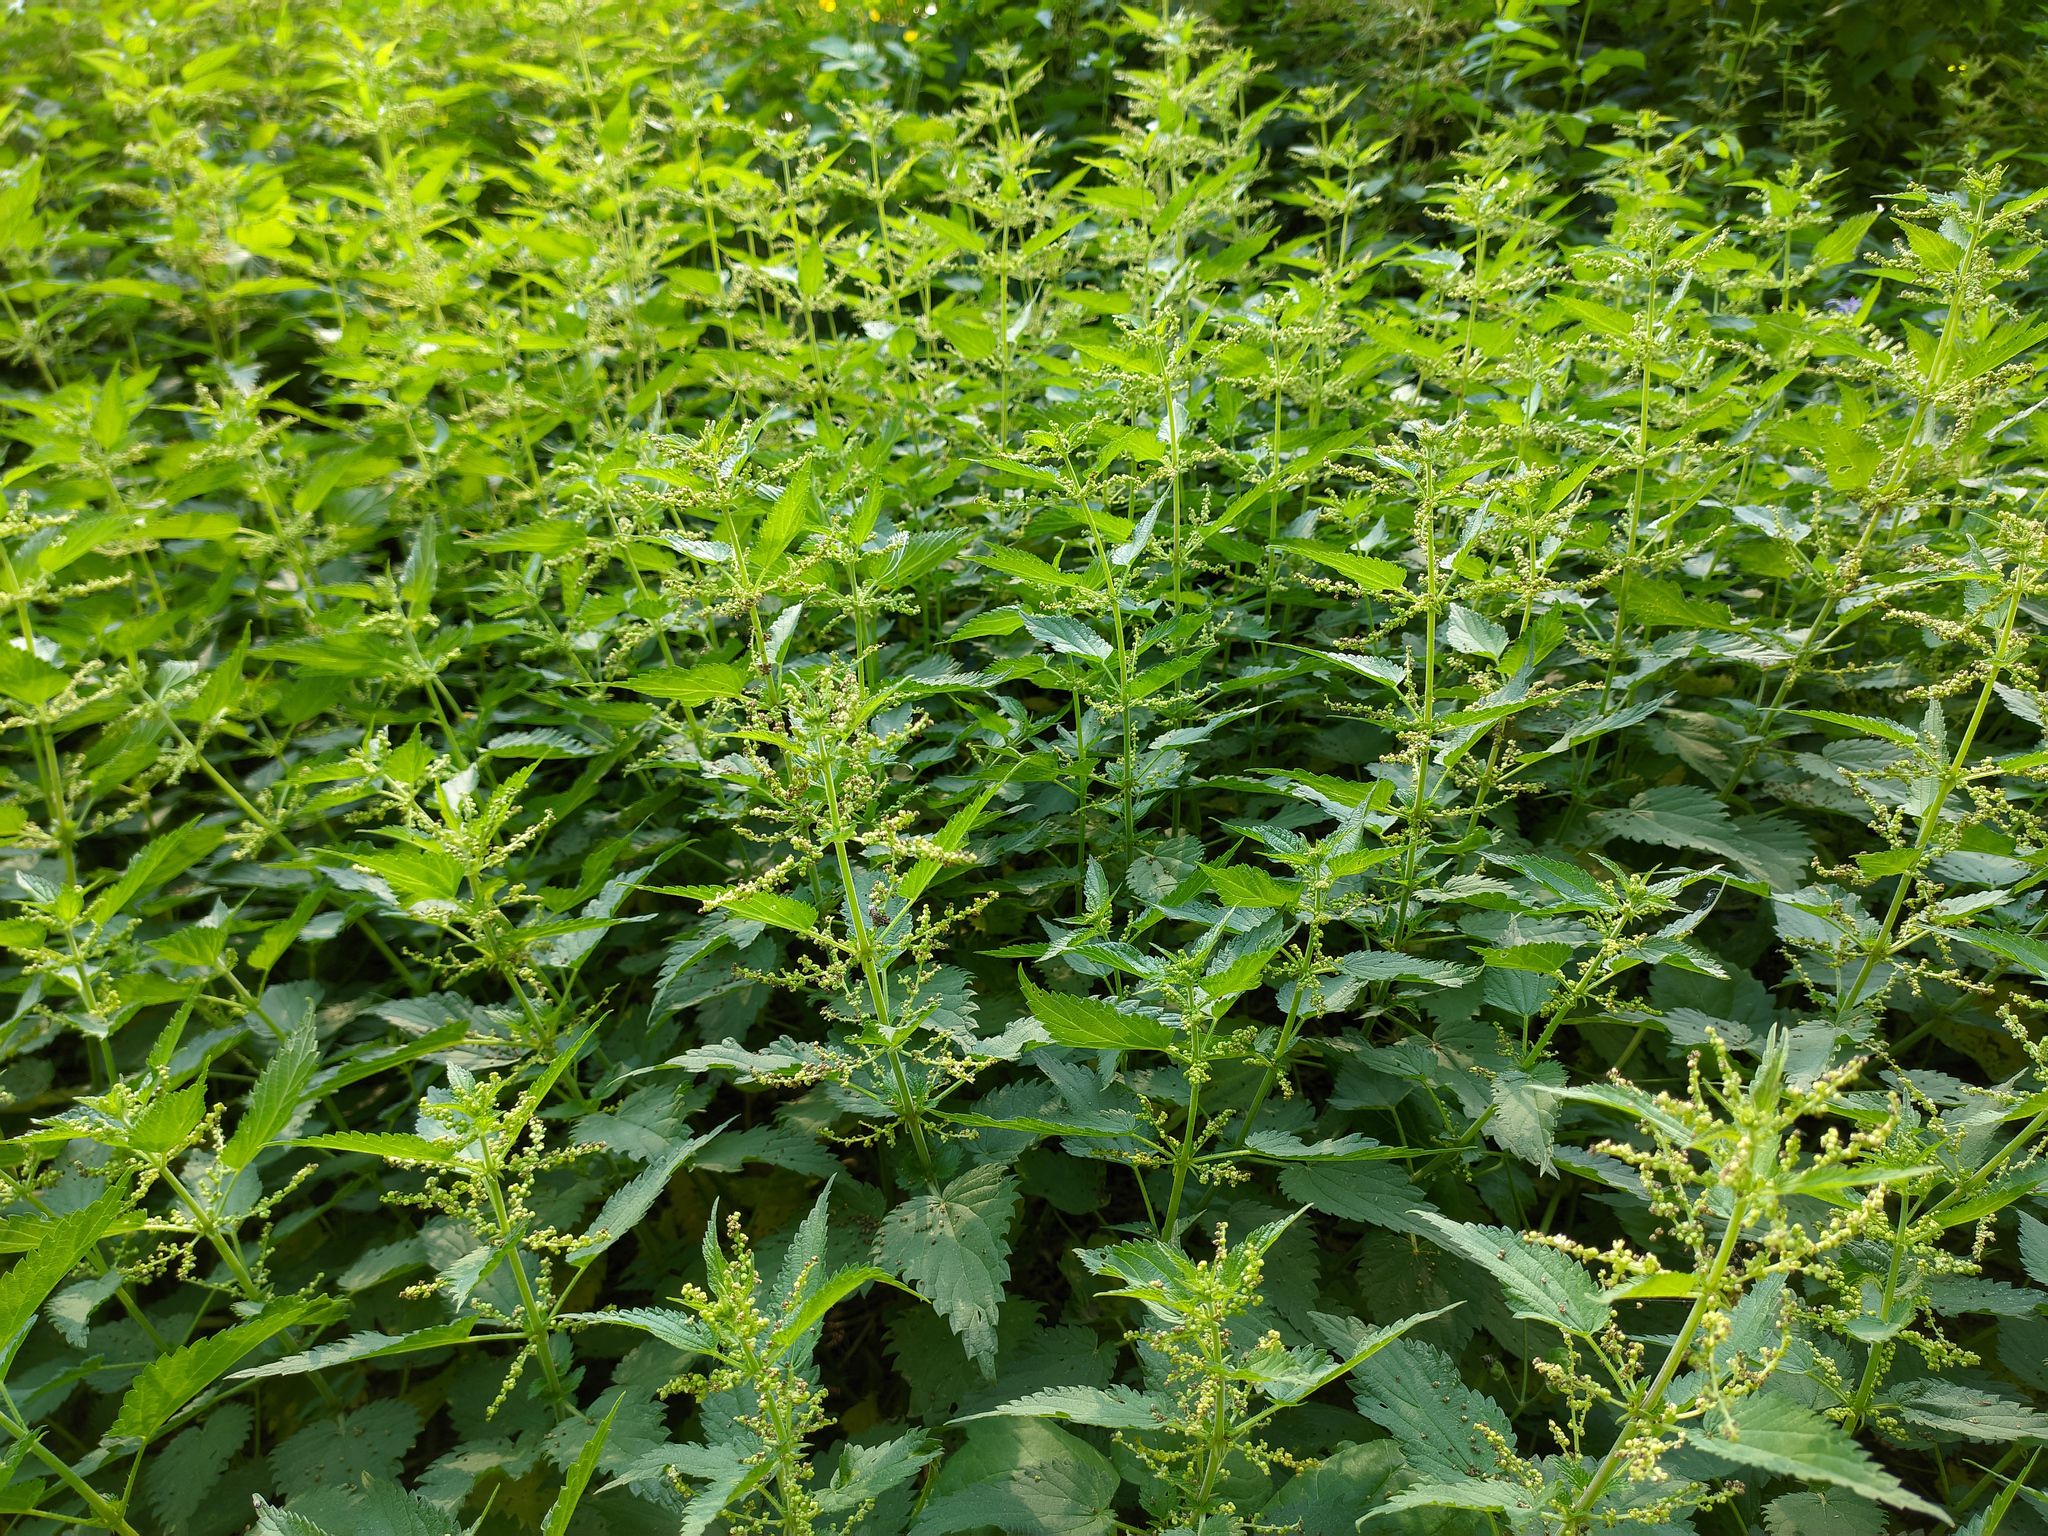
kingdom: Plantae
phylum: Tracheophyta
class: Magnoliopsida
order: Rosales
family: Urticaceae
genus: Urtica
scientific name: Urtica dioica
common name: Common nettle
